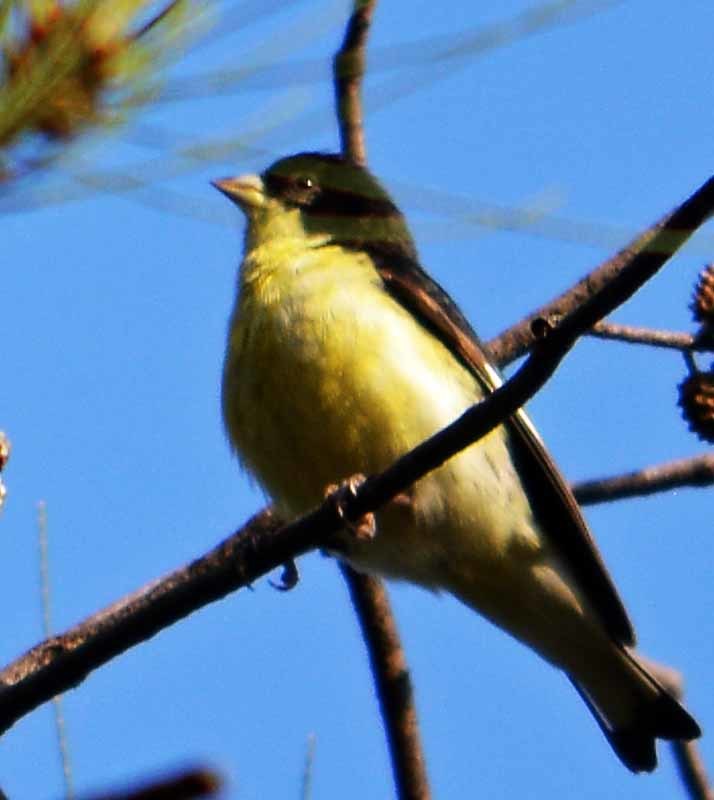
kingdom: Animalia
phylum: Chordata
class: Aves
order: Passeriformes
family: Fringillidae
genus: Spinus
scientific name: Spinus psaltria
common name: Lesser goldfinch
